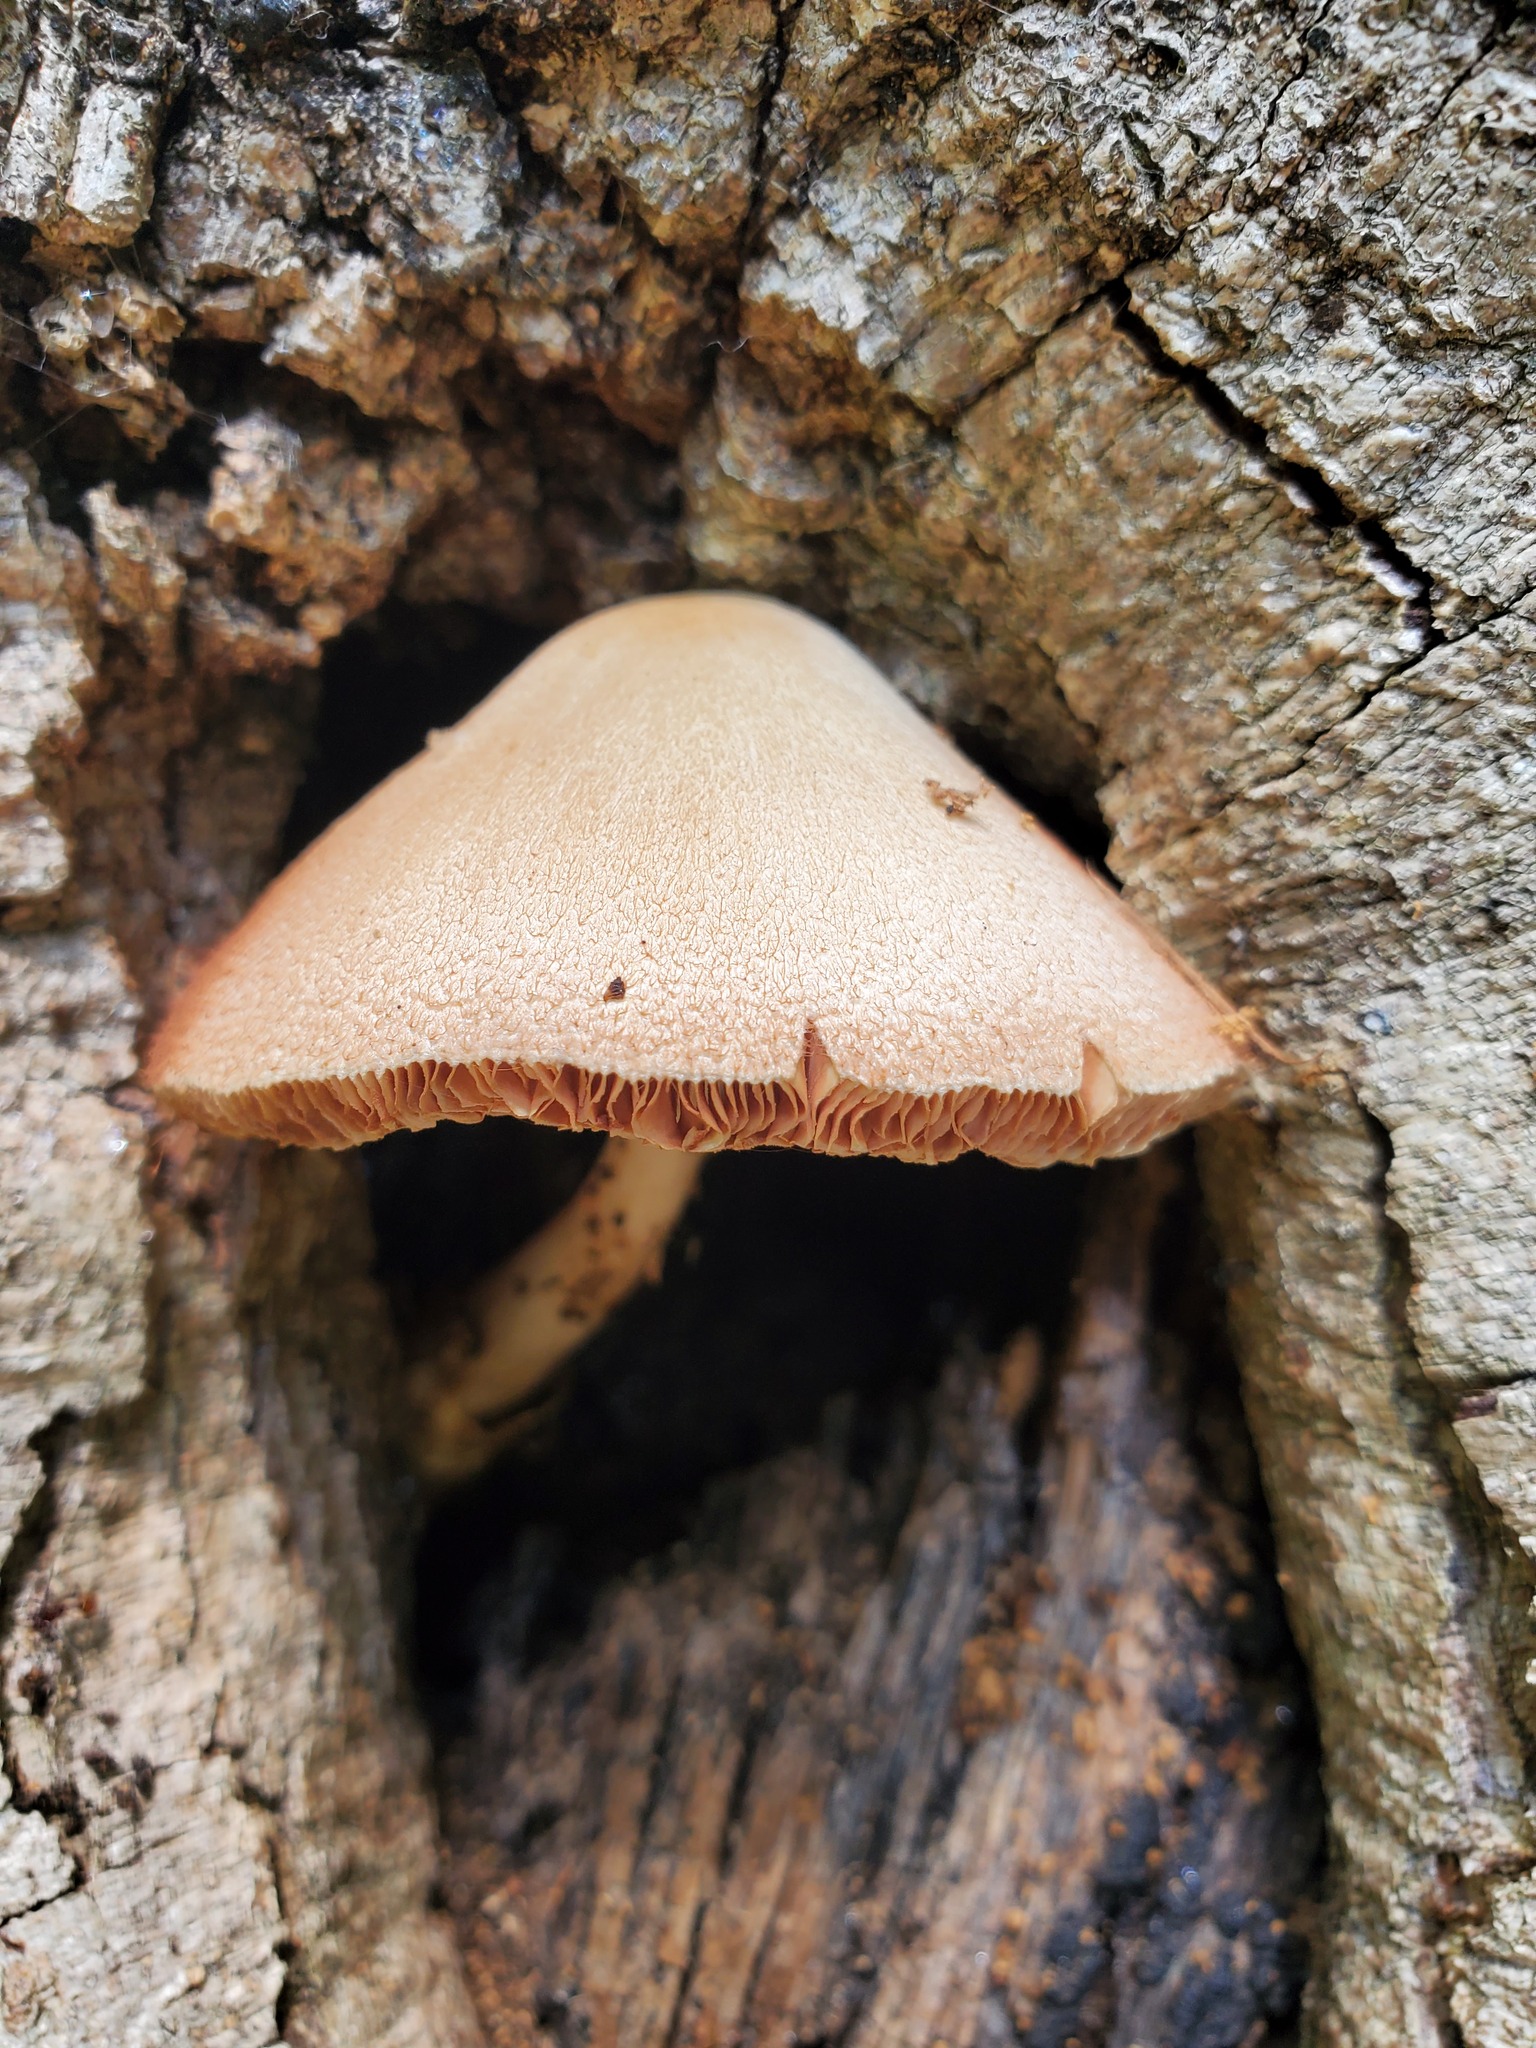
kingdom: Fungi
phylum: Basidiomycota
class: Agaricomycetes
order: Agaricales
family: Pluteaceae
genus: Volvariella
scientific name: Volvariella bombycina
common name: Silky rosegill
